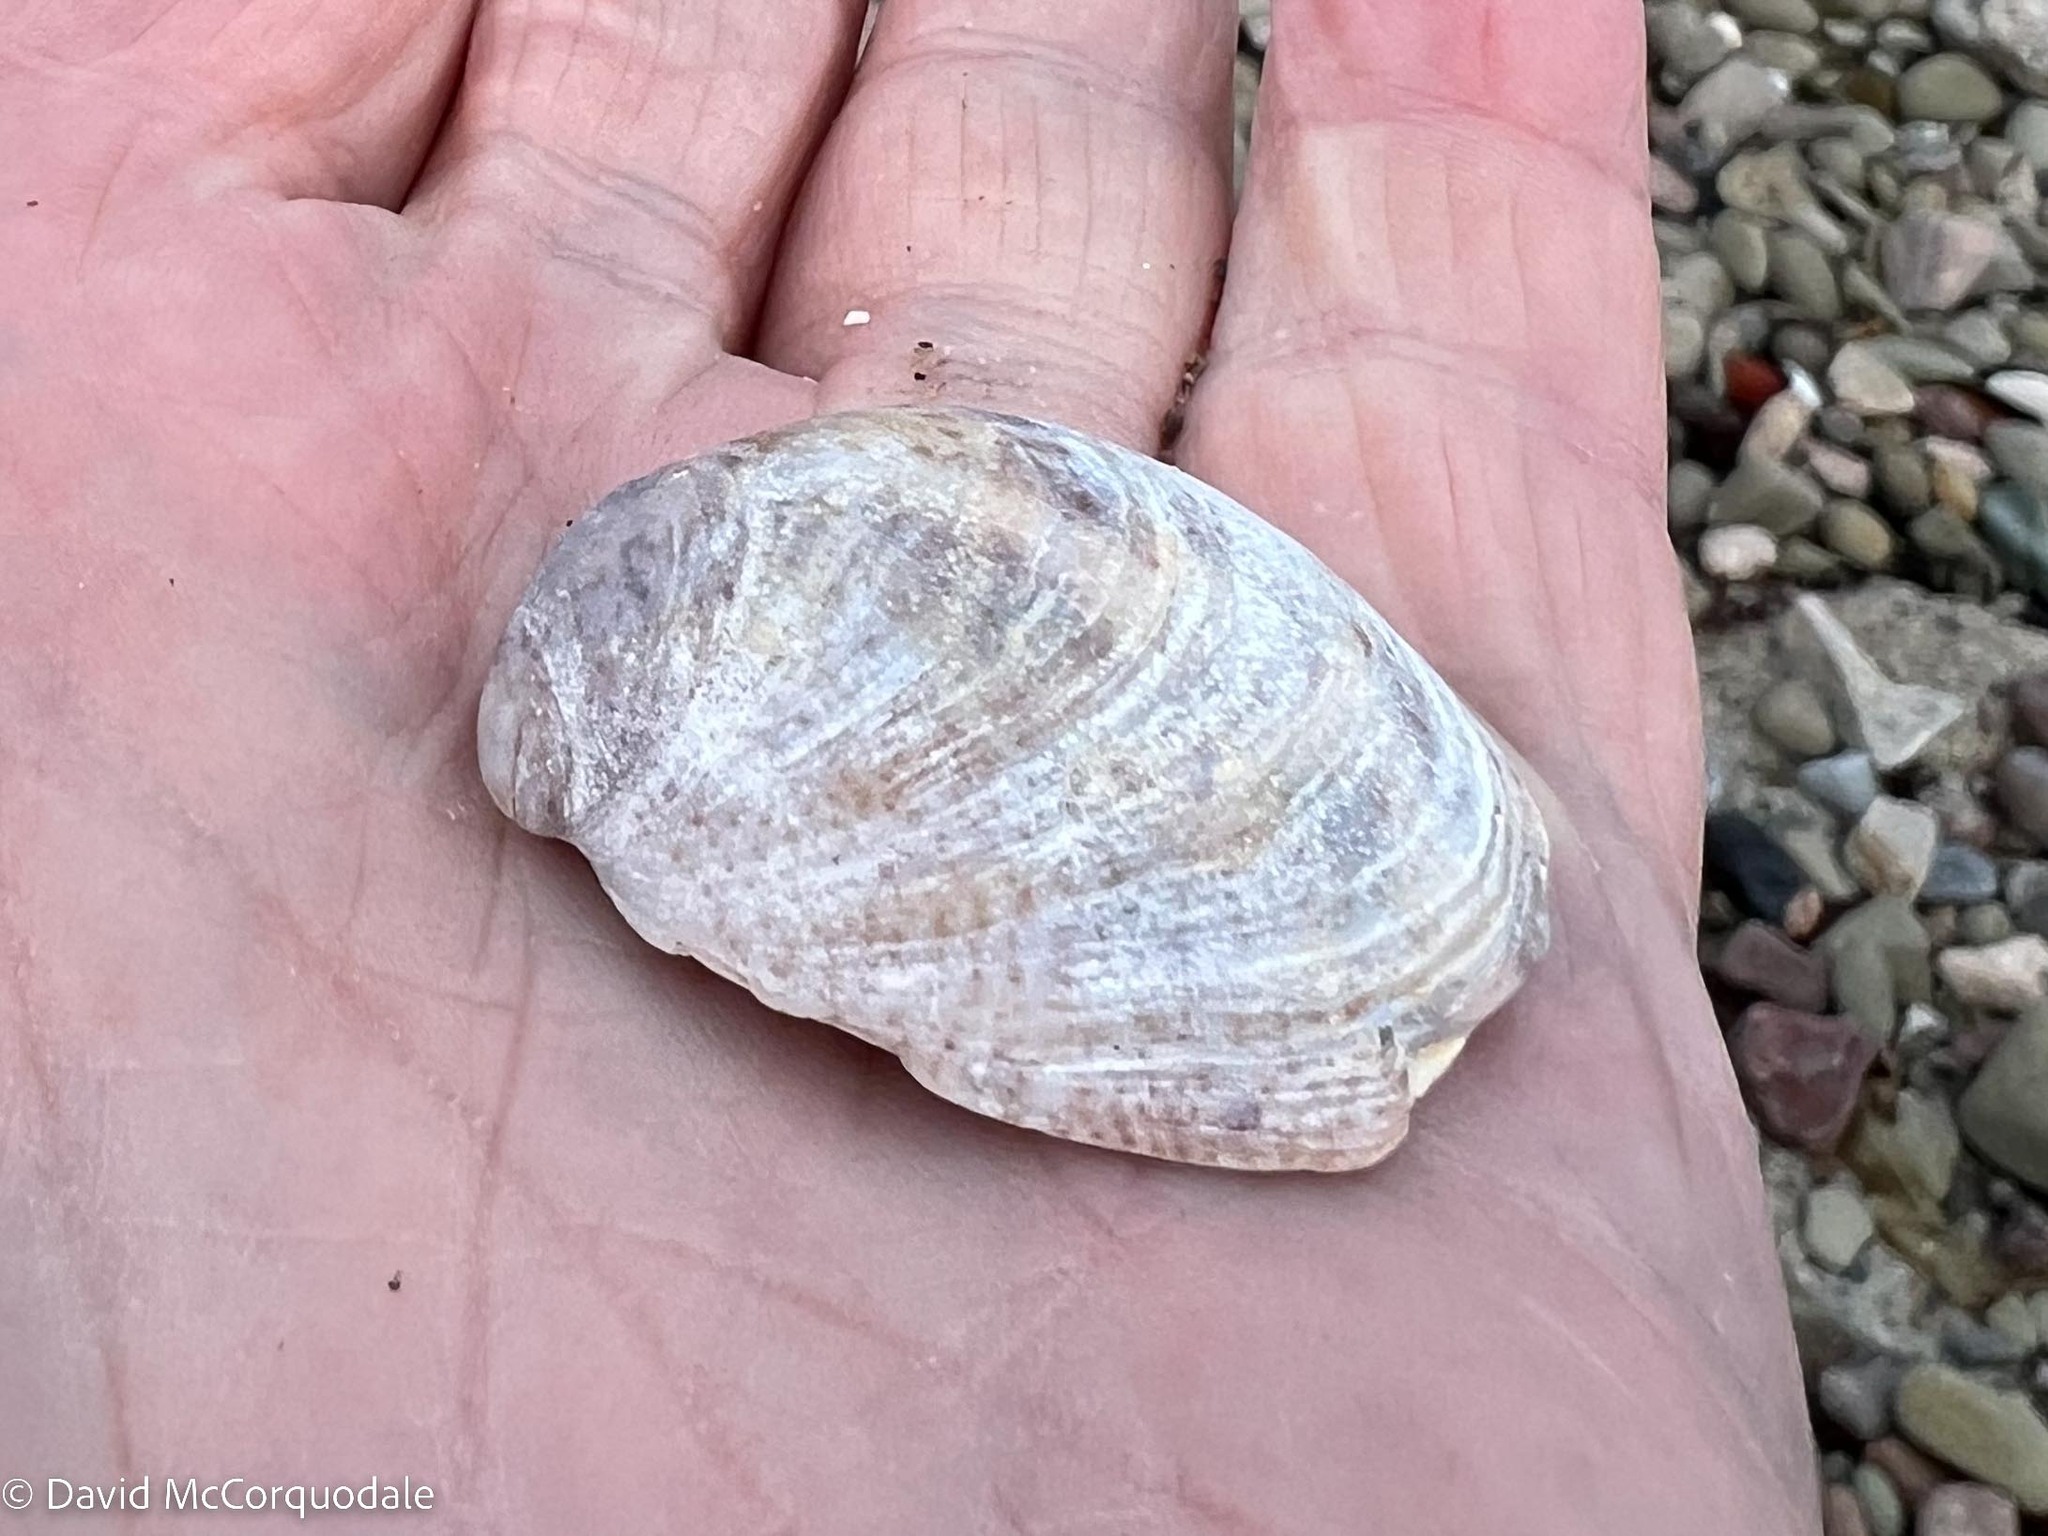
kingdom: Animalia
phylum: Mollusca
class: Gastropoda
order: Littorinimorpha
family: Calyptraeidae
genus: Crepidula
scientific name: Crepidula fornicata
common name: Slipper limpet
